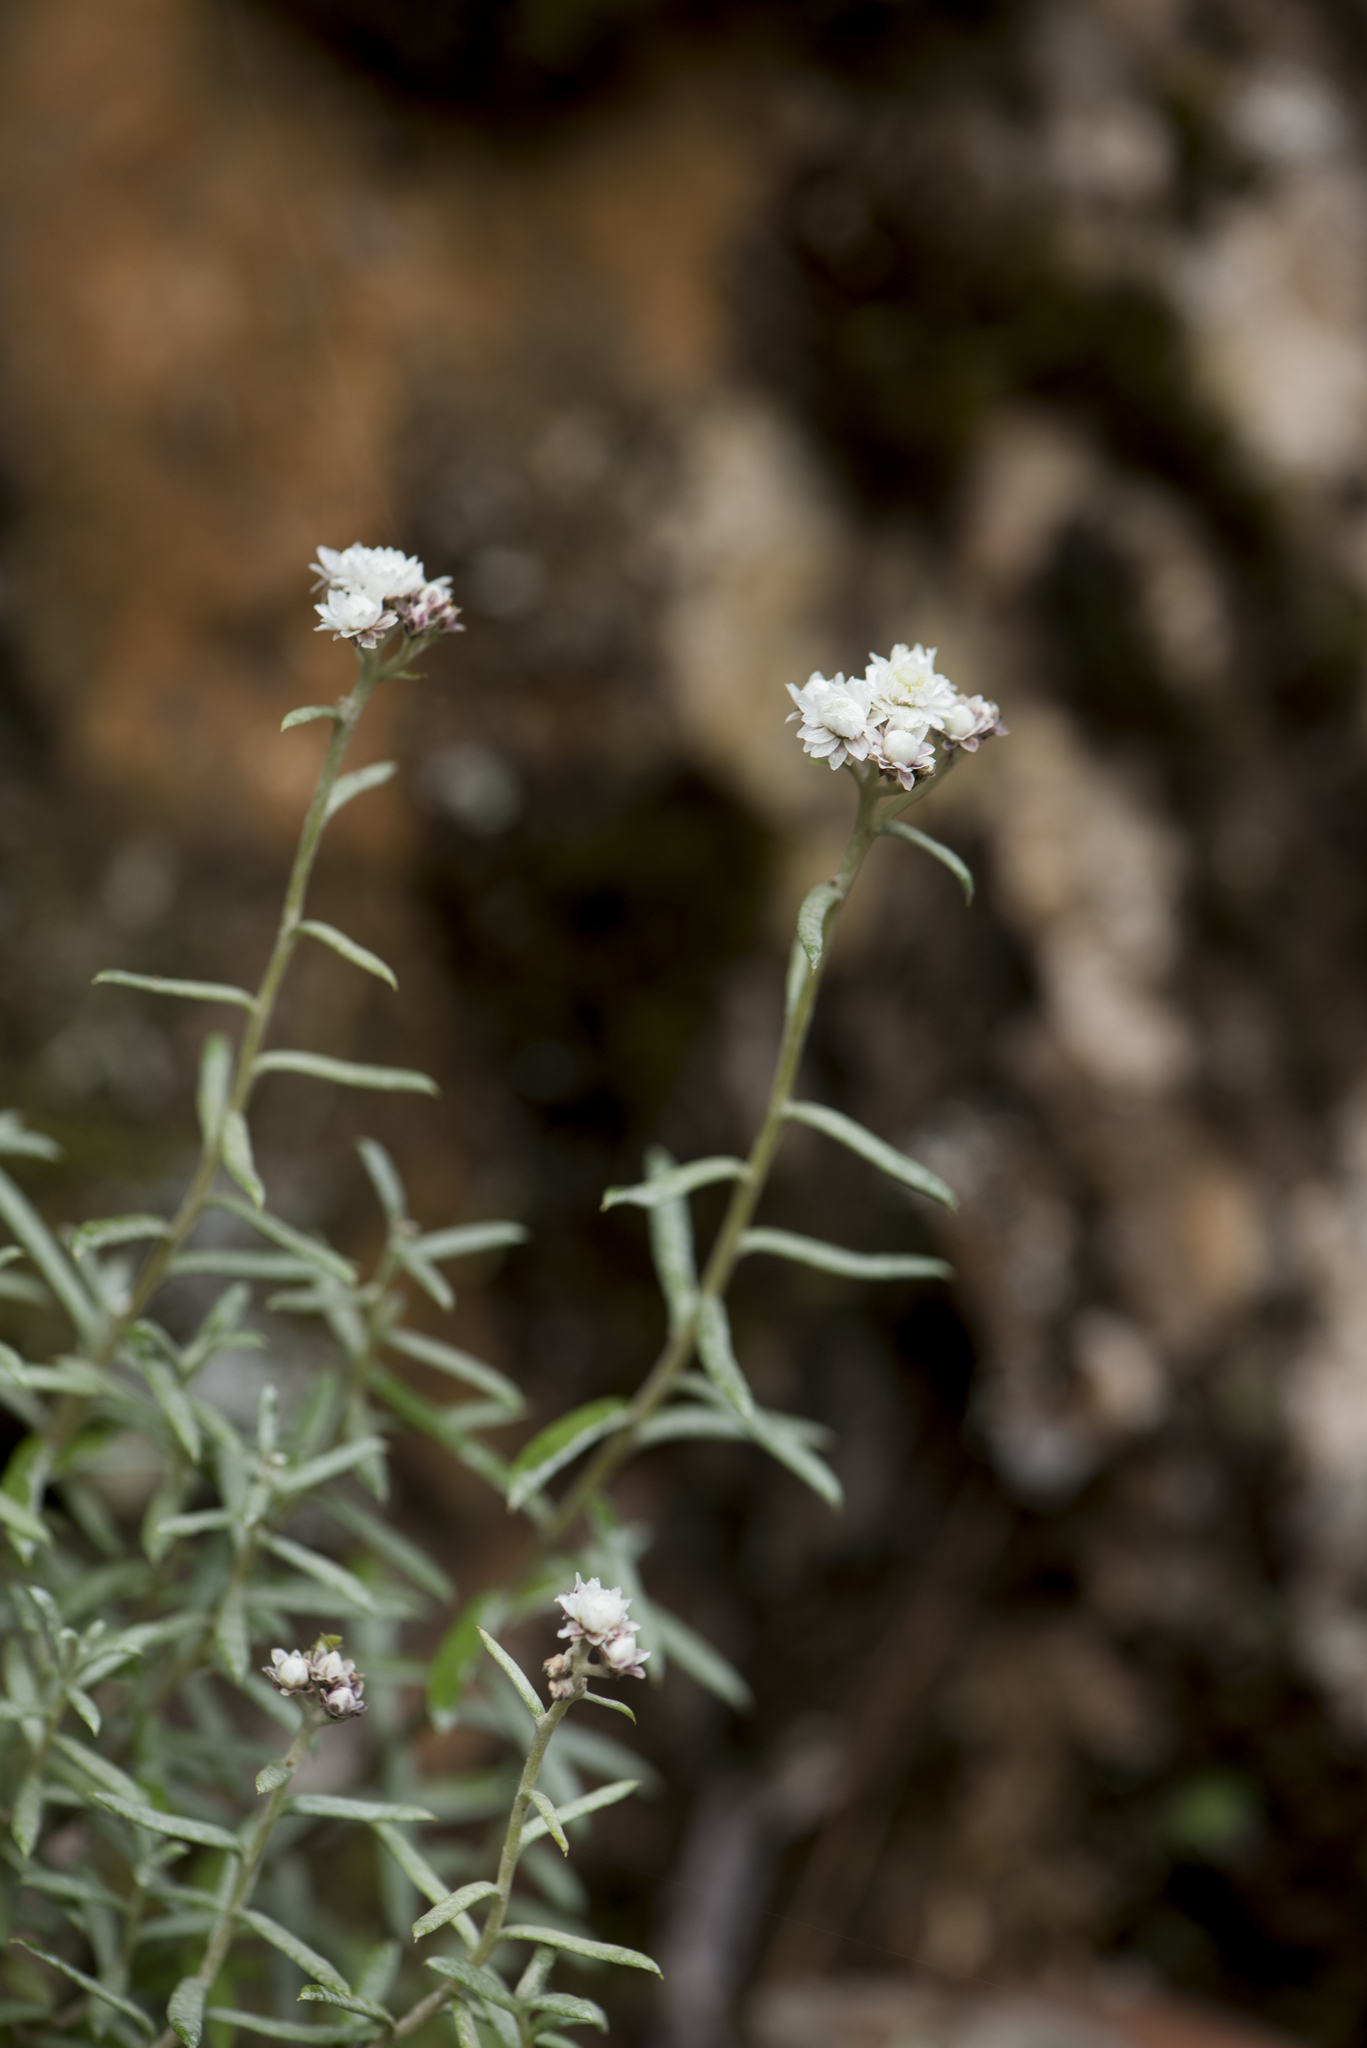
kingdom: Plantae
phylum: Tracheophyta
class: Magnoliopsida
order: Asterales
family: Asteraceae
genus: Anaphalis
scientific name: Anaphalis morrisonicola
